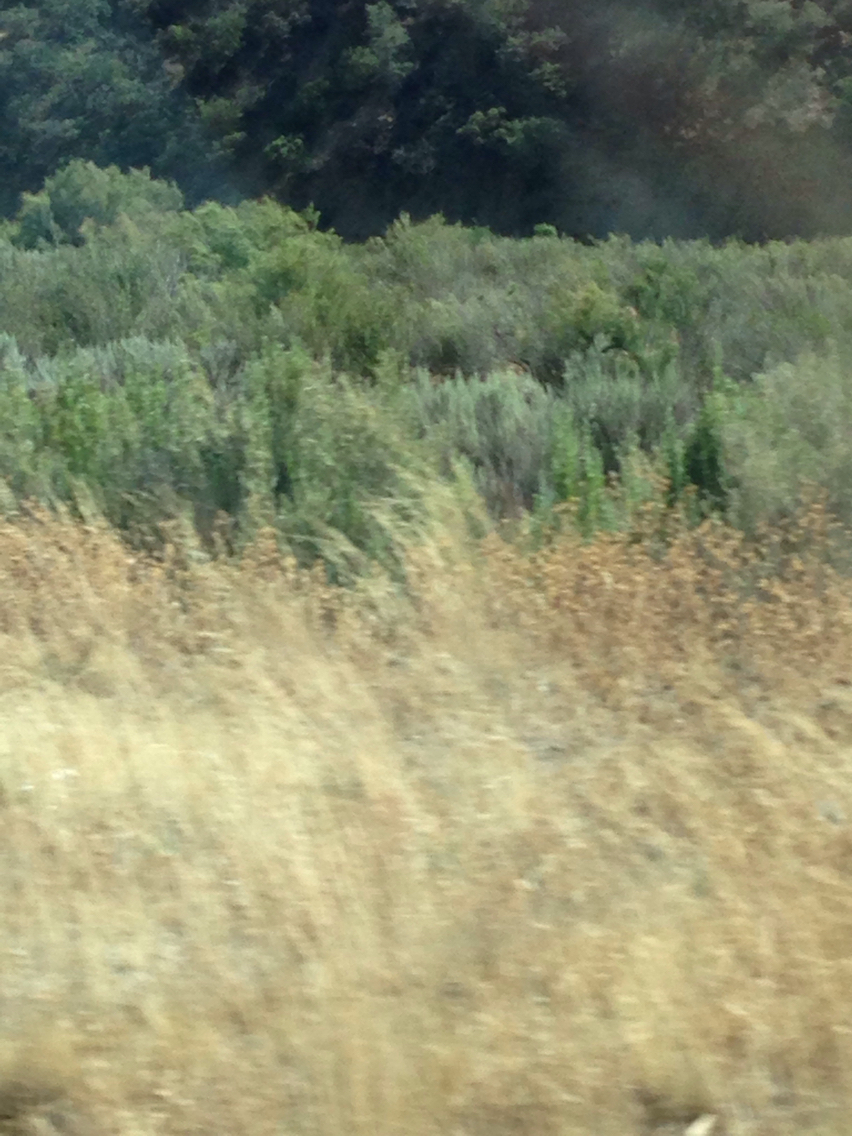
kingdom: Plantae
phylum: Tracheophyta
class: Magnoliopsida
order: Asterales
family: Asteraceae
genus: Artemisia
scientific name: Artemisia tridentata
